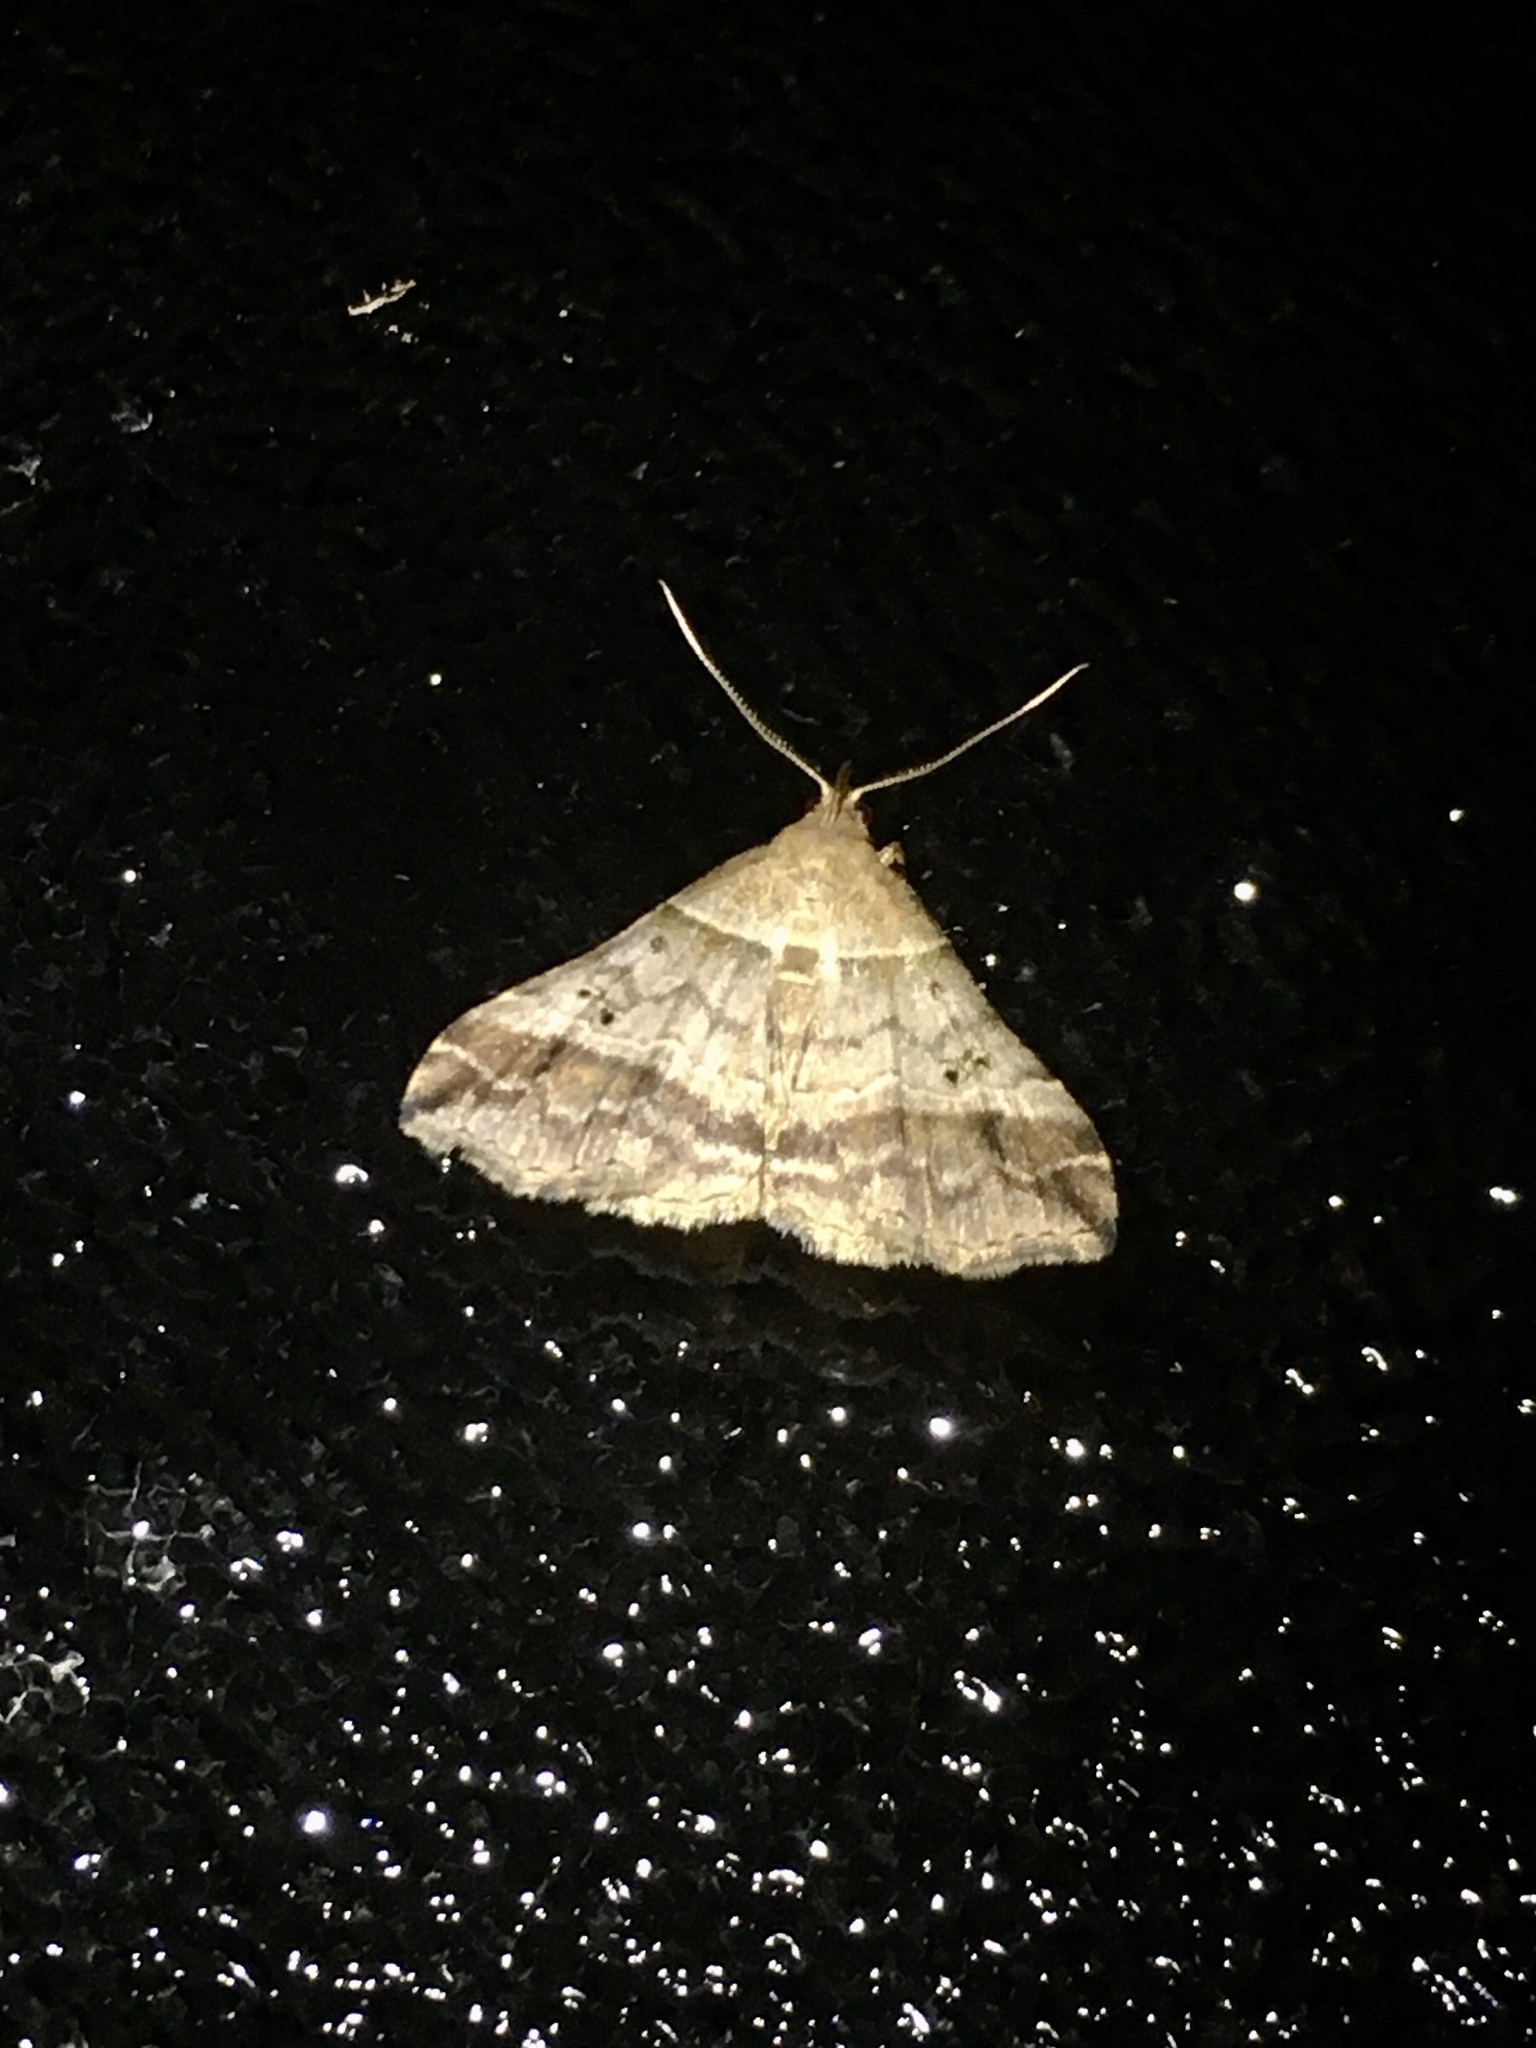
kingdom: Animalia
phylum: Arthropoda
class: Insecta
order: Lepidoptera
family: Erebidae
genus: Phaeolita
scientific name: Phaeolita pyramusalis
